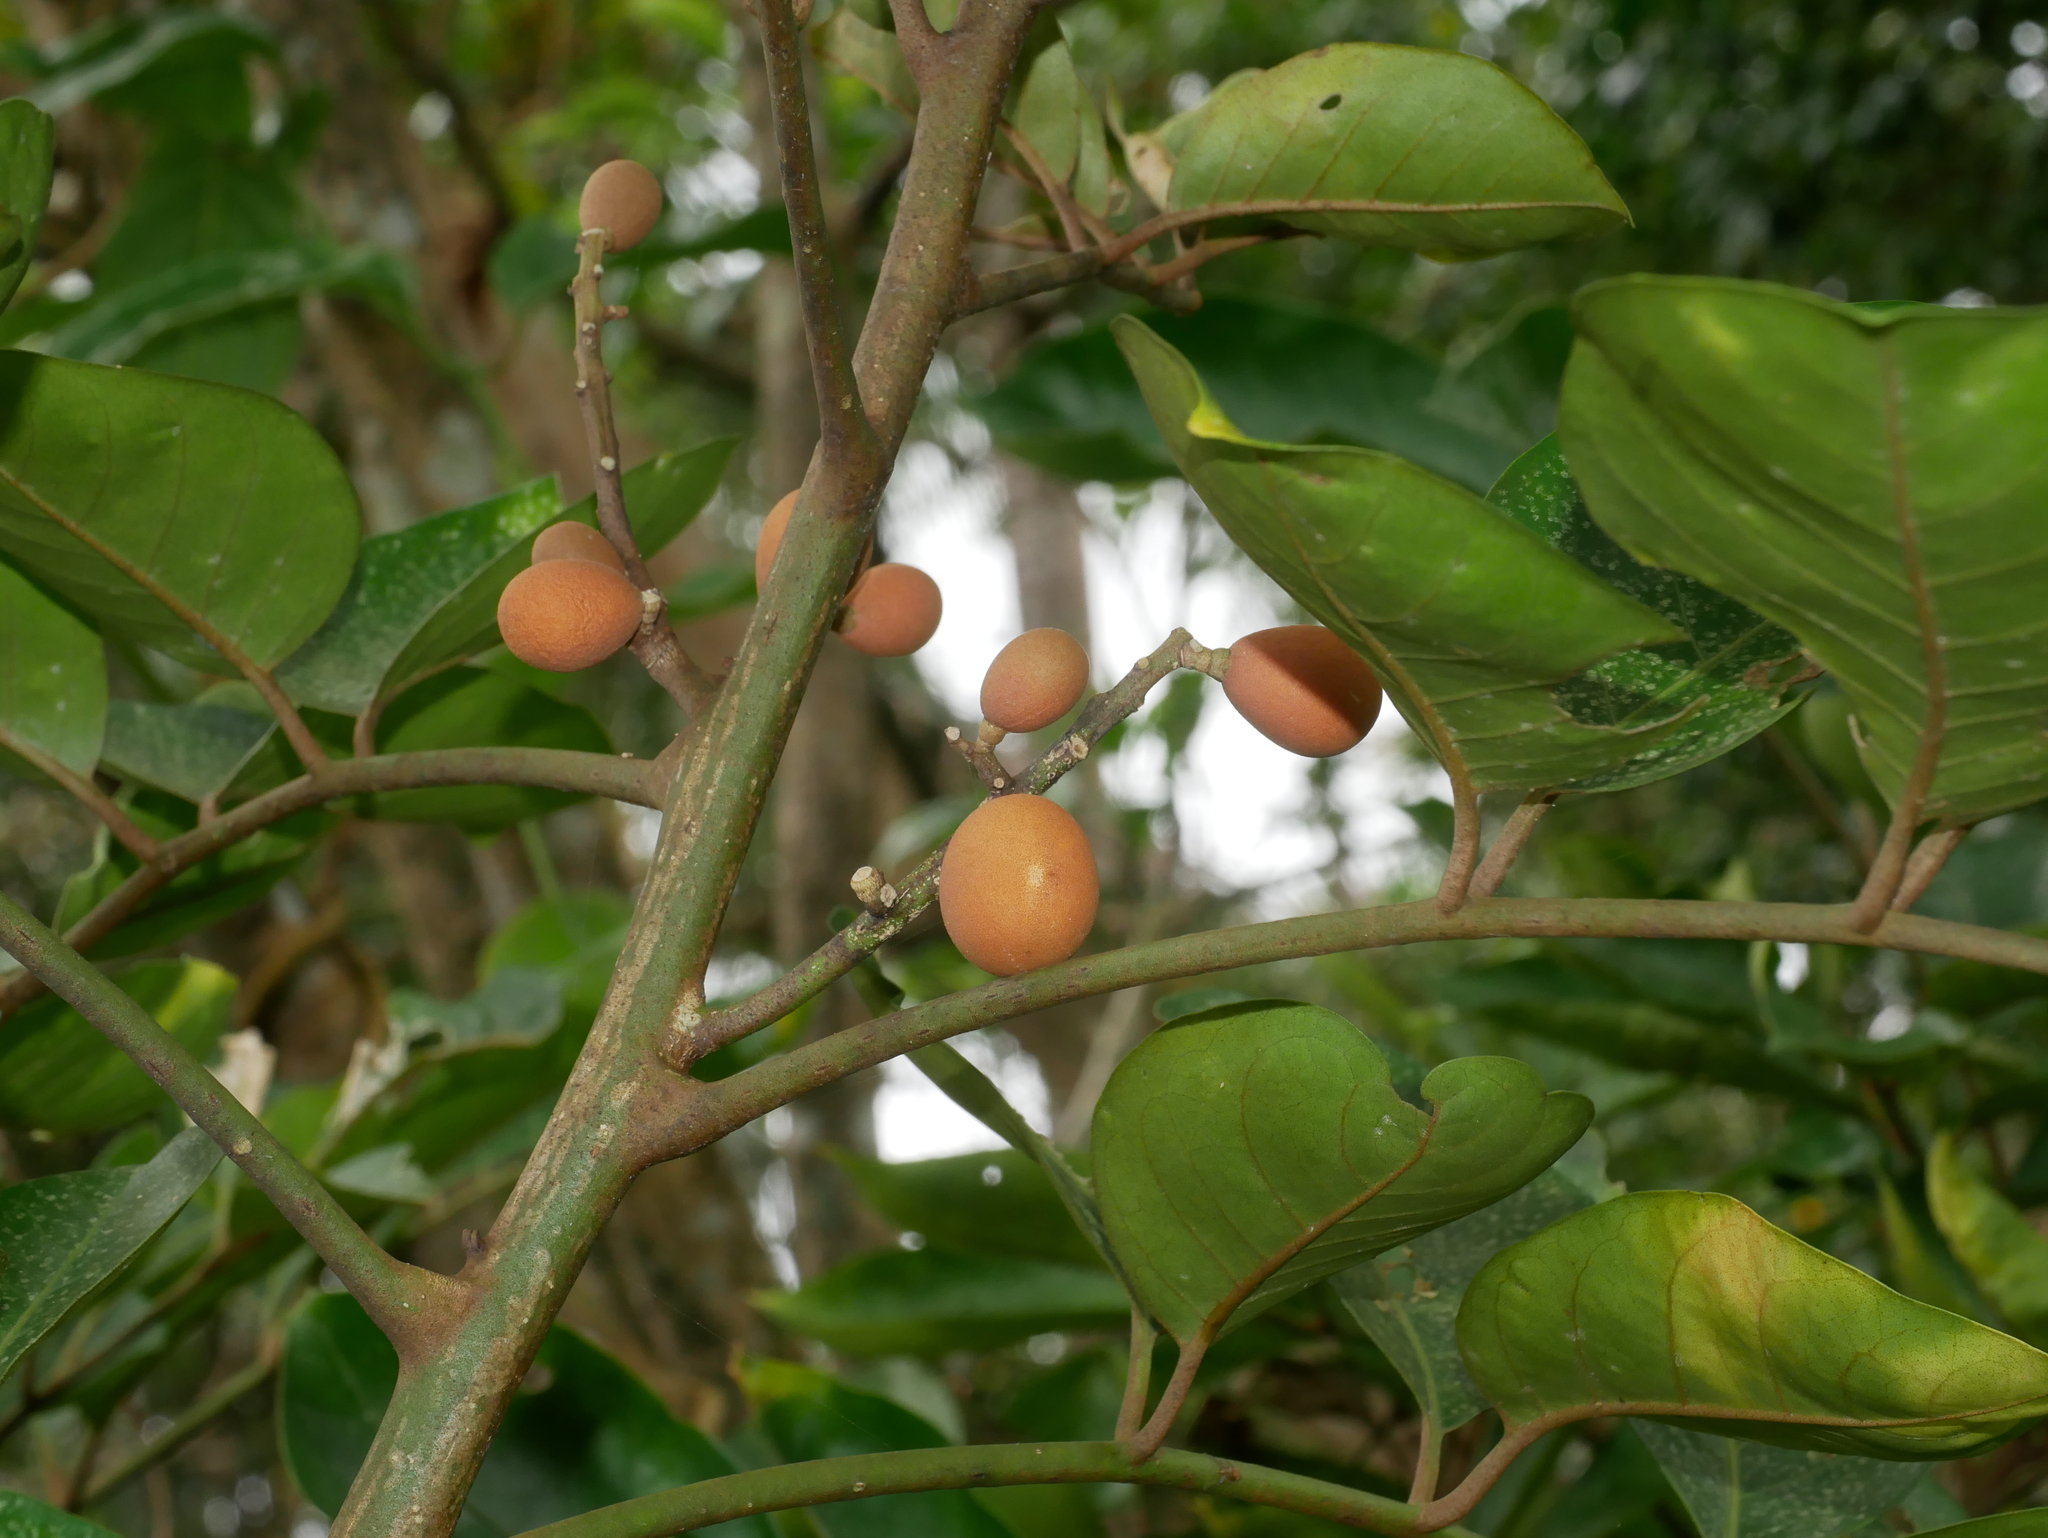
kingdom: Plantae
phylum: Tracheophyta
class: Magnoliopsida
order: Sapindales
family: Meliaceae
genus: Aglaia
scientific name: Aglaia rimosa
